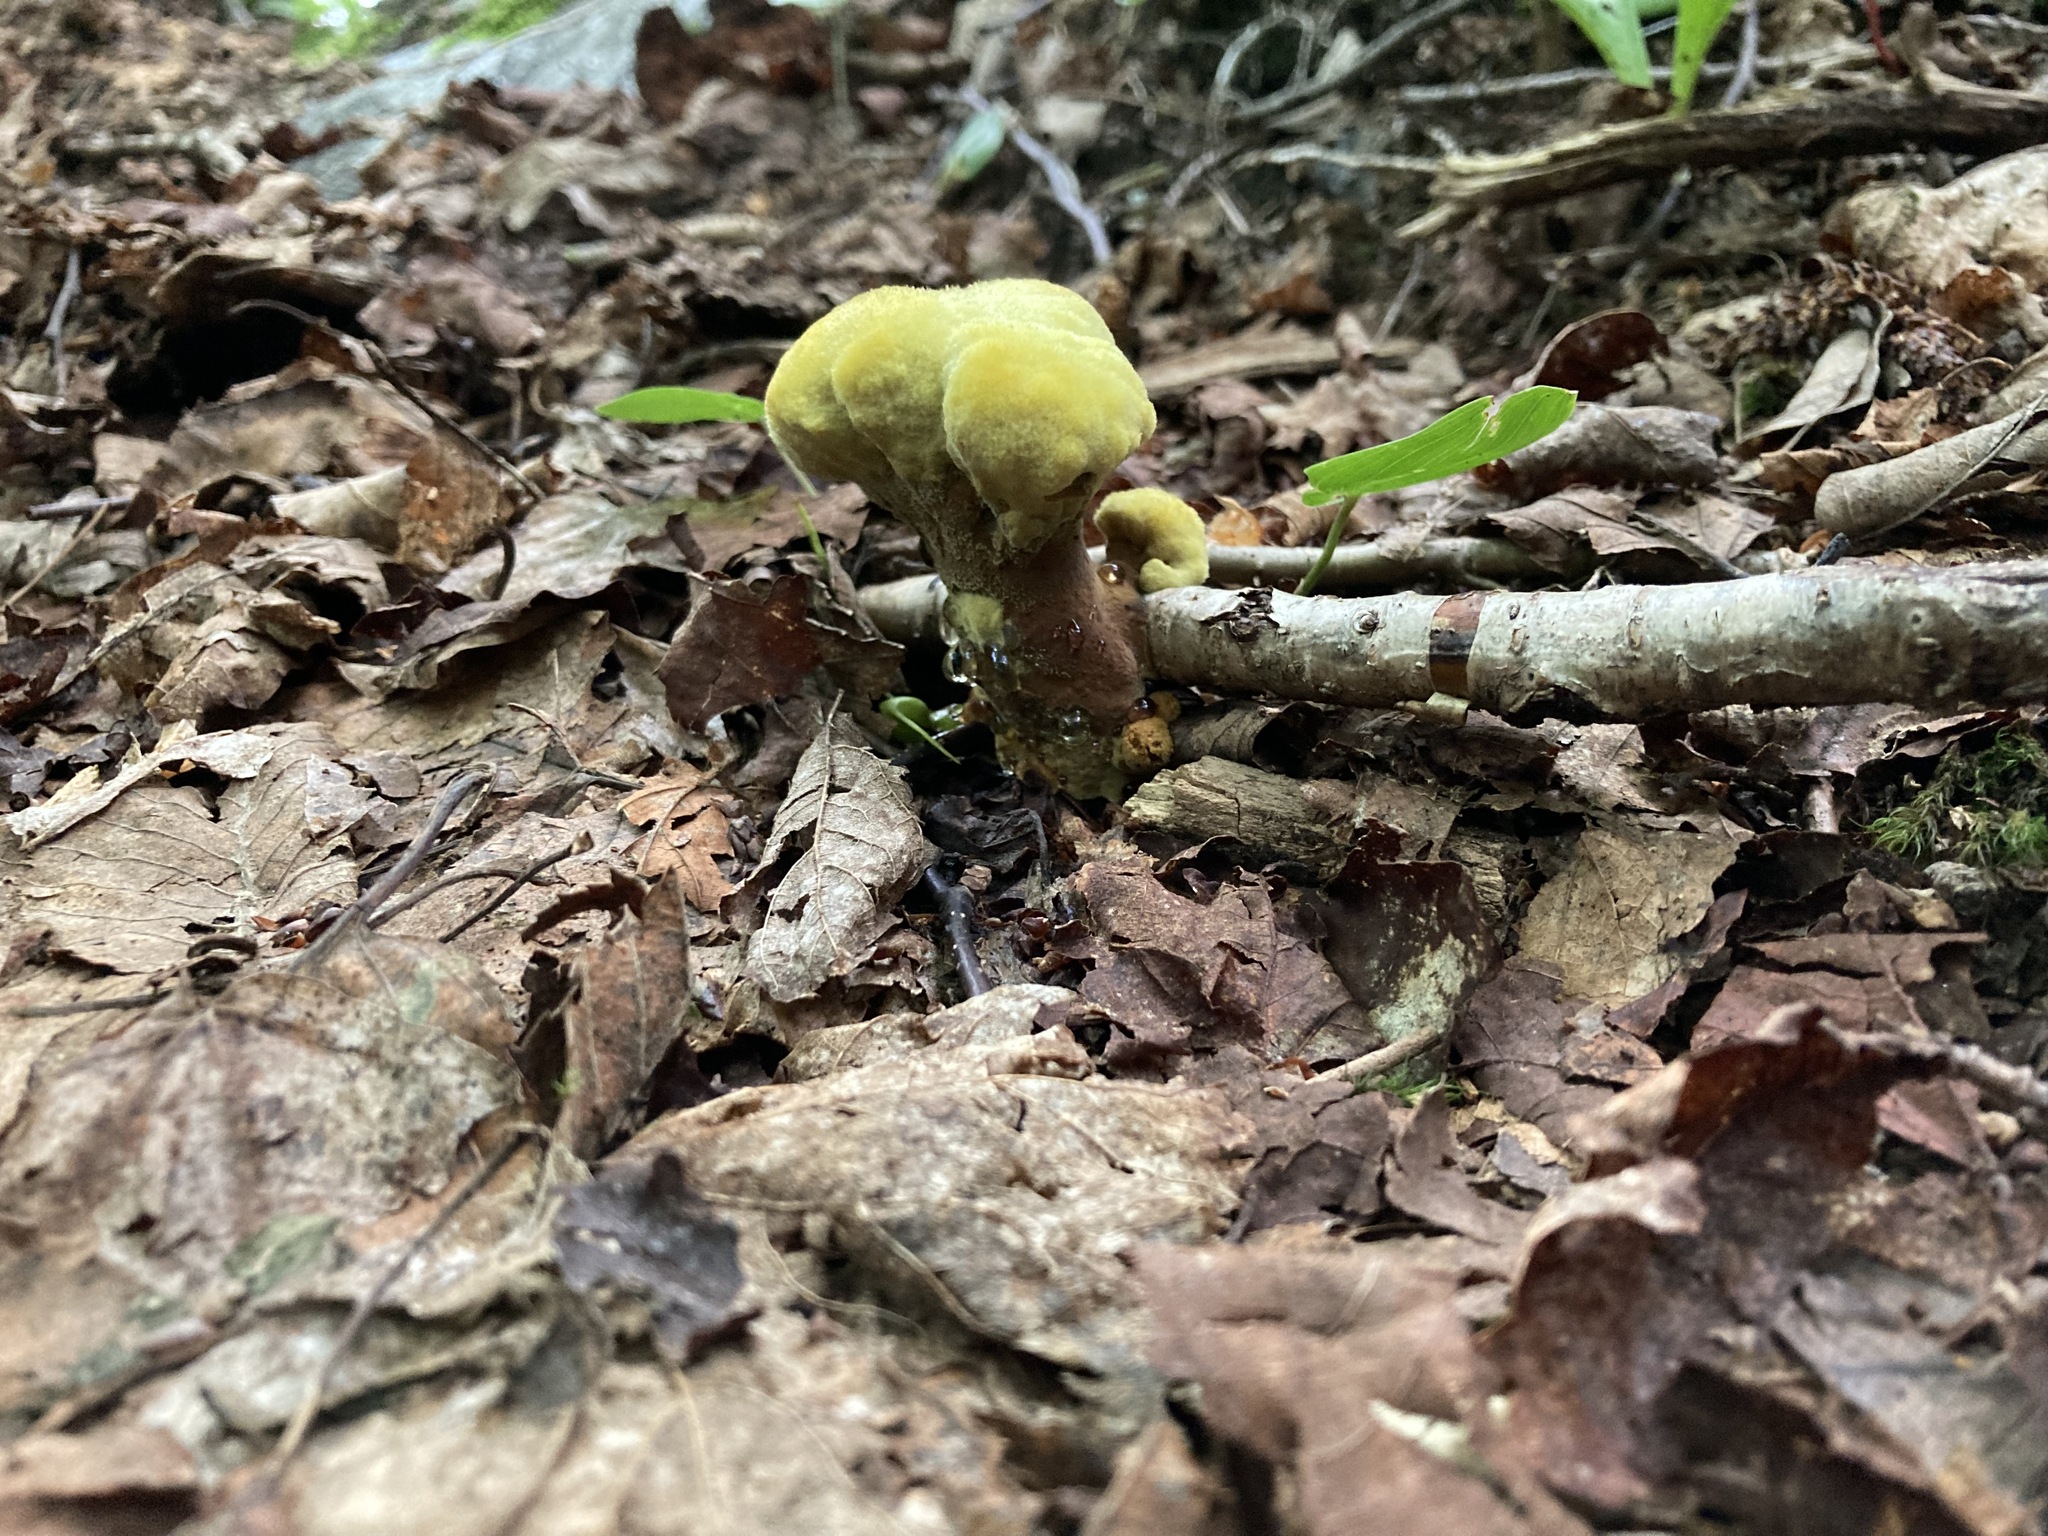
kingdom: Fungi
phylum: Basidiomycota
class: Agaricomycetes
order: Polyporales
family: Laetiporaceae
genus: Phaeolus
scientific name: Phaeolus schweinitzii
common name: Dyer's mazegill
